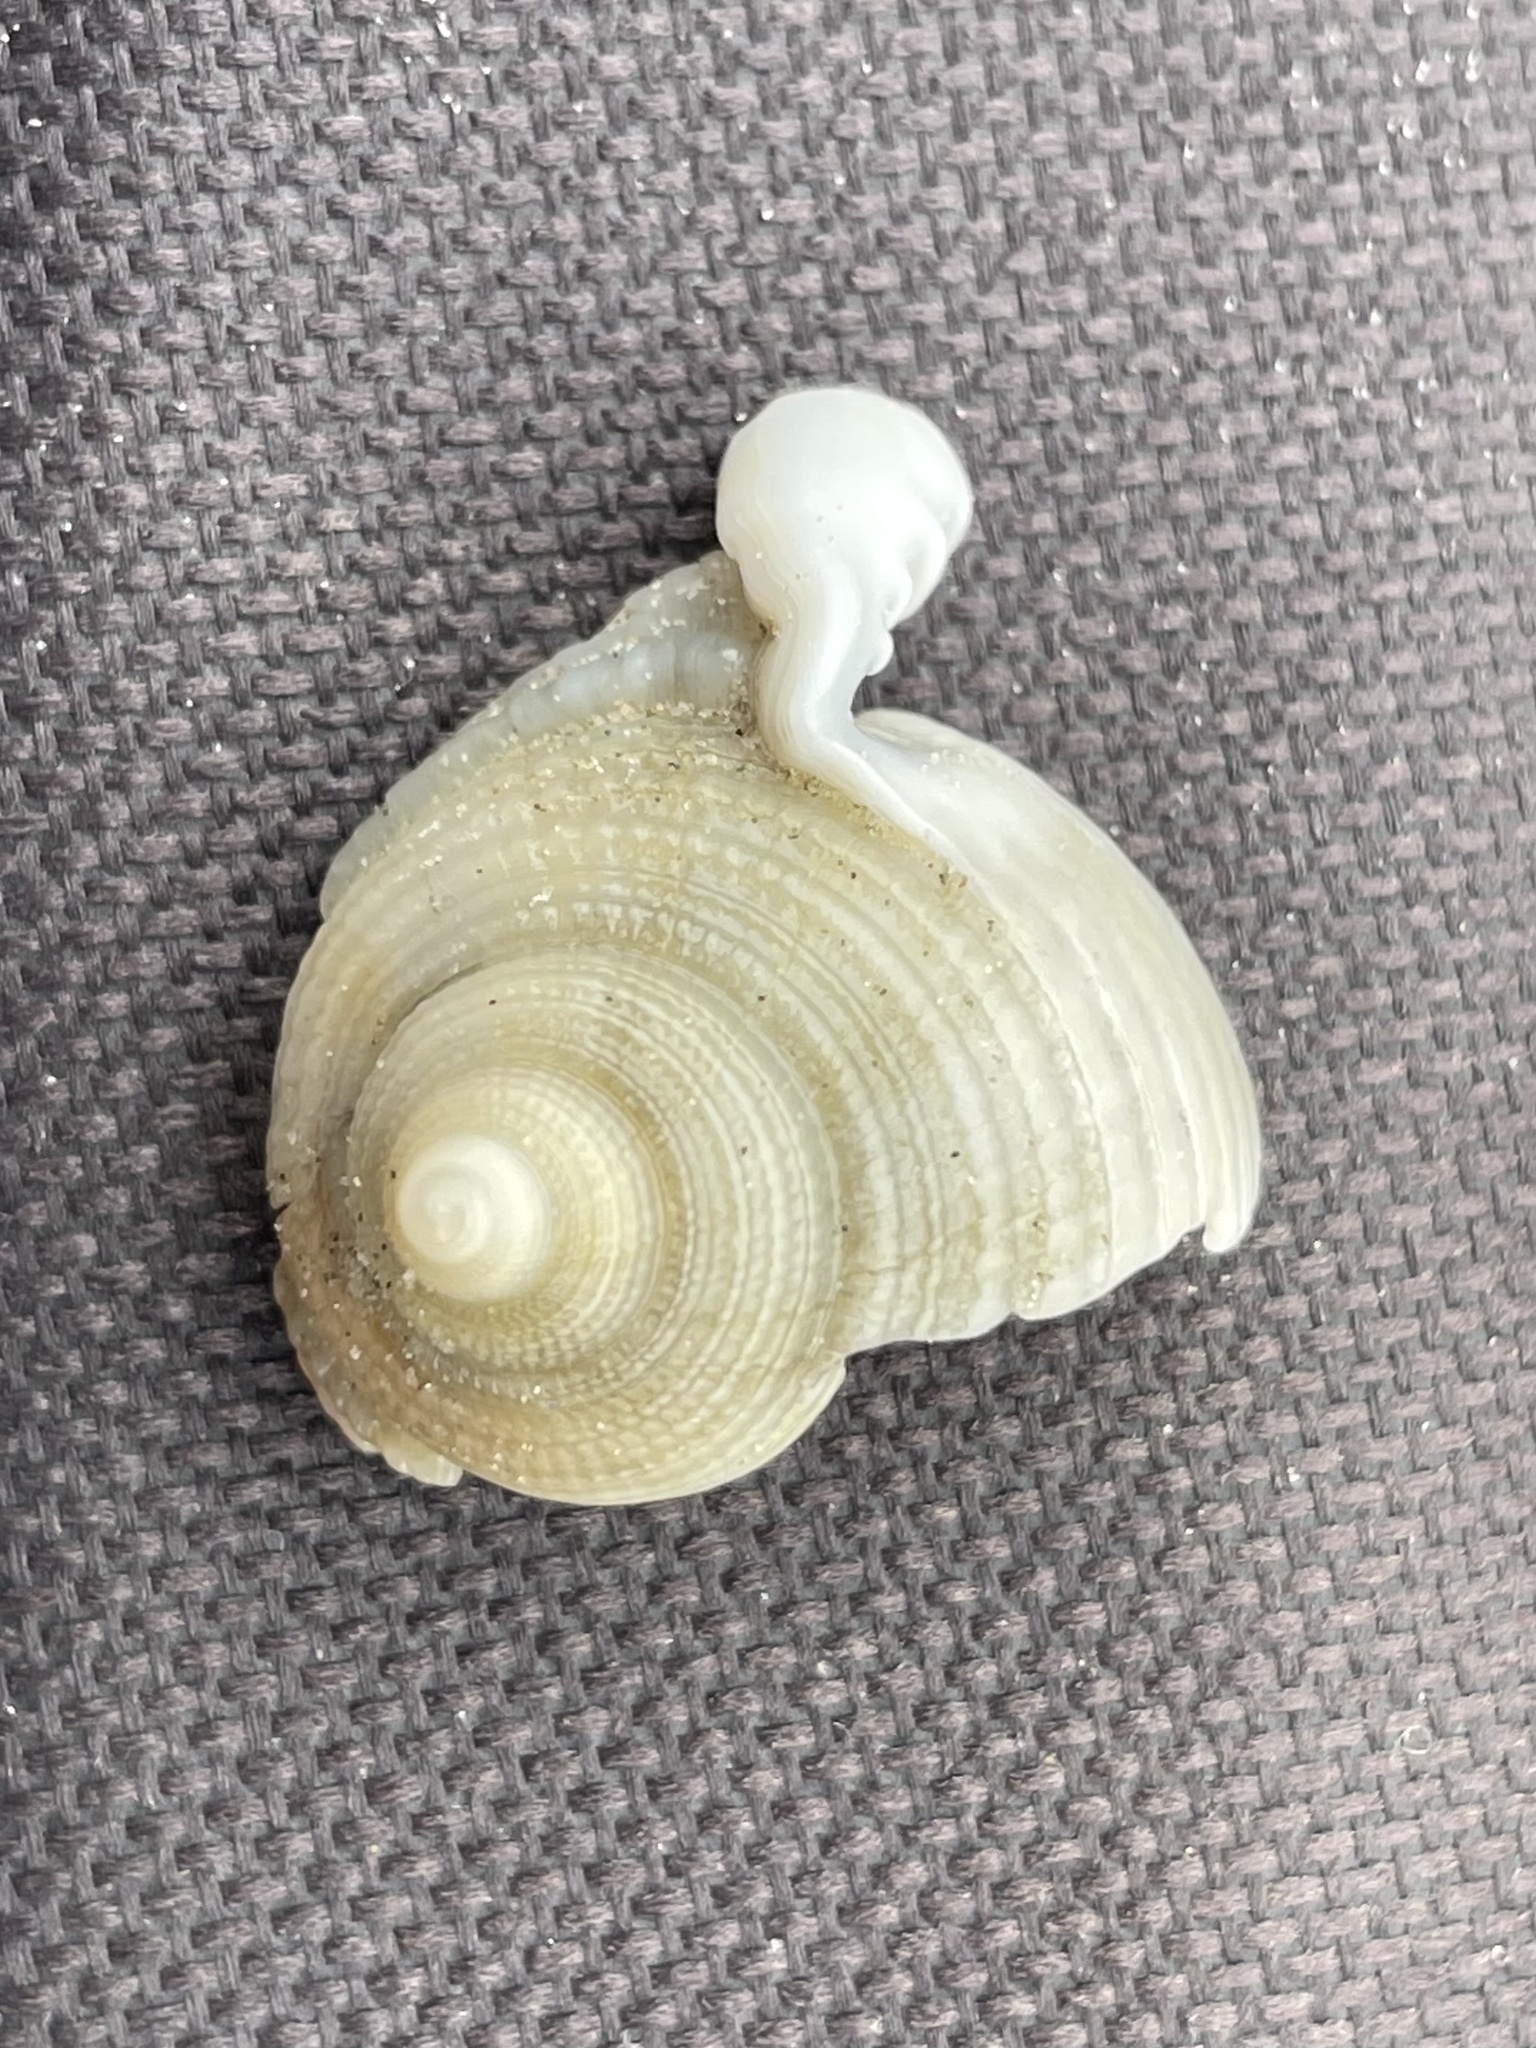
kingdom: Animalia
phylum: Mollusca
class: Gastropoda
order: Littorinimorpha
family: Cassidae
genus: Semicassis
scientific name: Semicassis granulata
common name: Scotch bonnet
